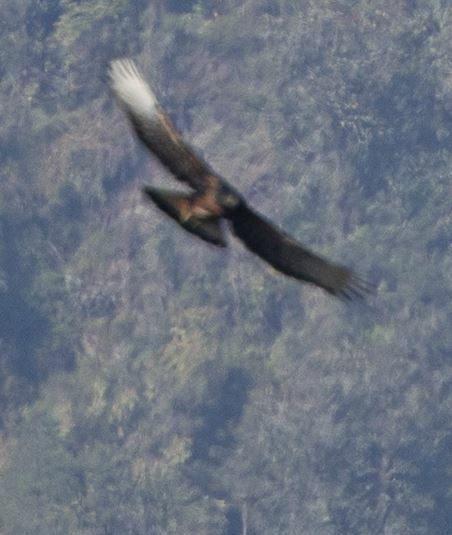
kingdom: Animalia
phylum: Chordata
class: Aves
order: Accipitriformes
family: Accipitridae
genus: Spizaetus
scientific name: Spizaetus isidori
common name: Black-and-chestnut eagle
